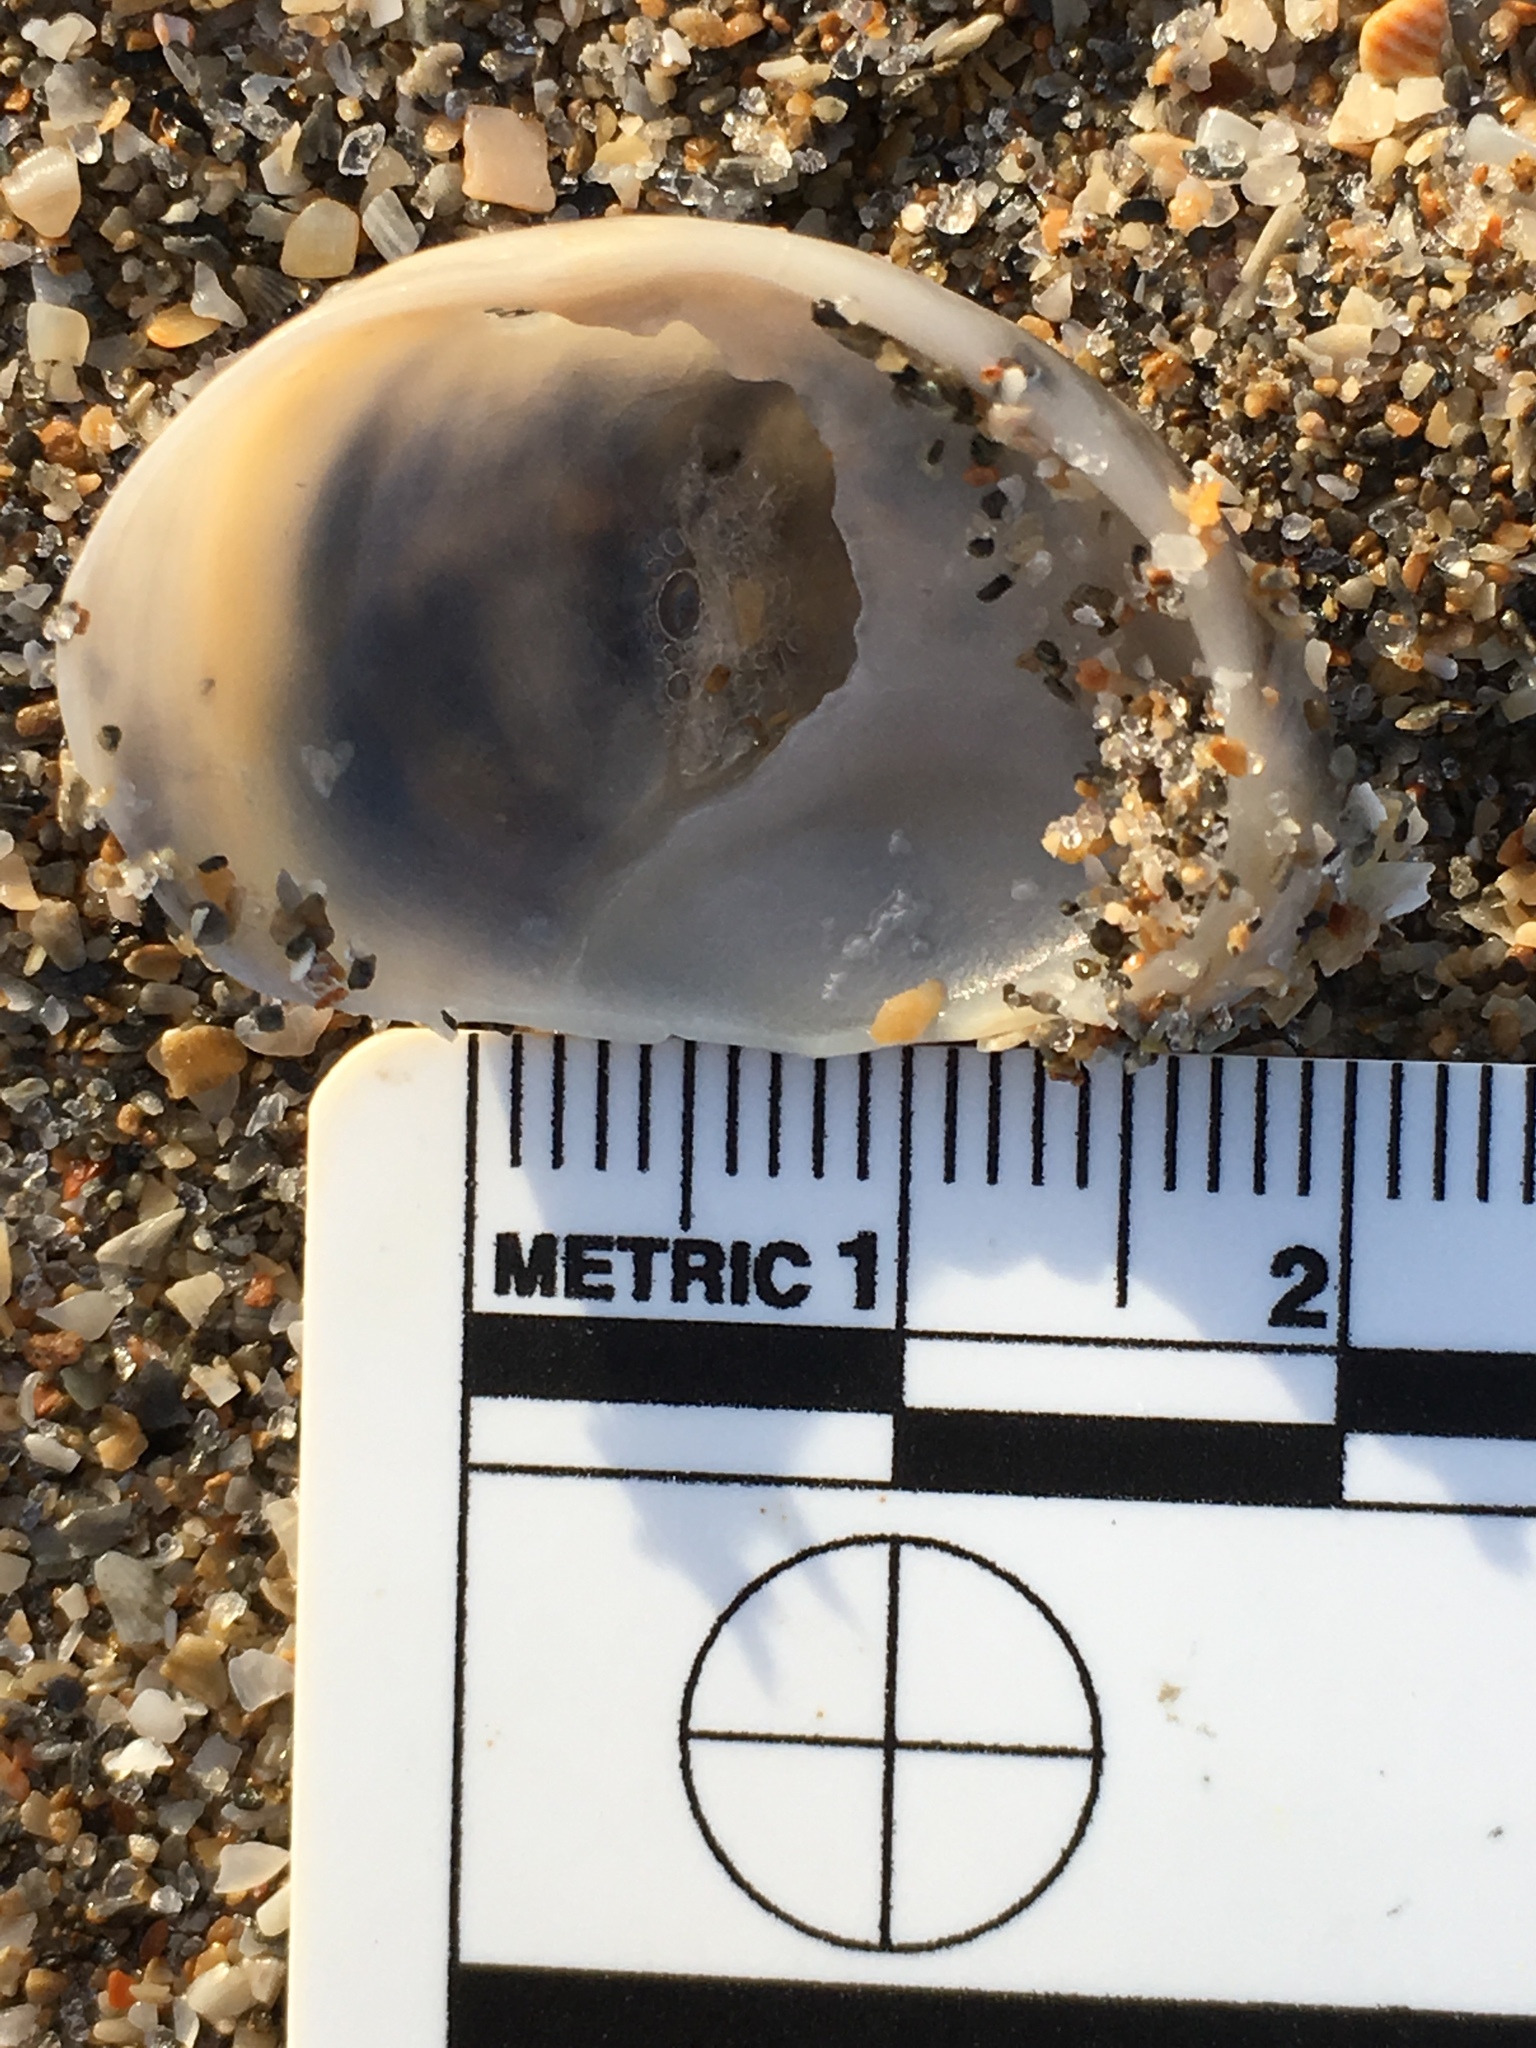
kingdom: Animalia
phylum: Mollusca
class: Gastropoda
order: Littorinimorpha
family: Calyptraeidae
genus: Crepidula
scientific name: Crepidula fornicata
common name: Slipper limpet
